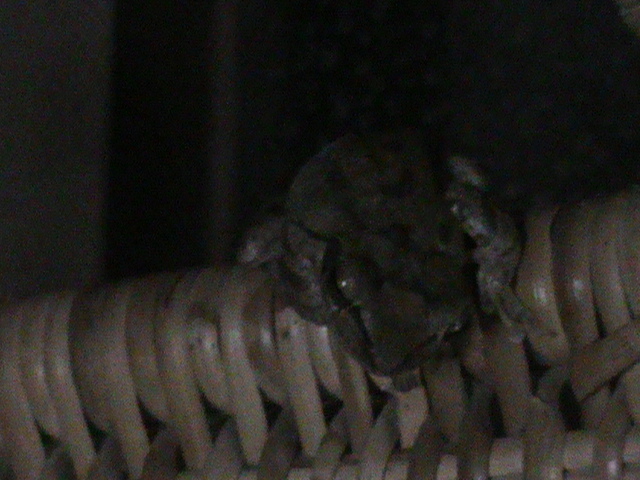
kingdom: Animalia
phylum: Chordata
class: Amphibia
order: Anura
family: Rhacophoridae
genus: Polypedates
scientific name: Polypedates maculatus
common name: Himalayan tree frog
